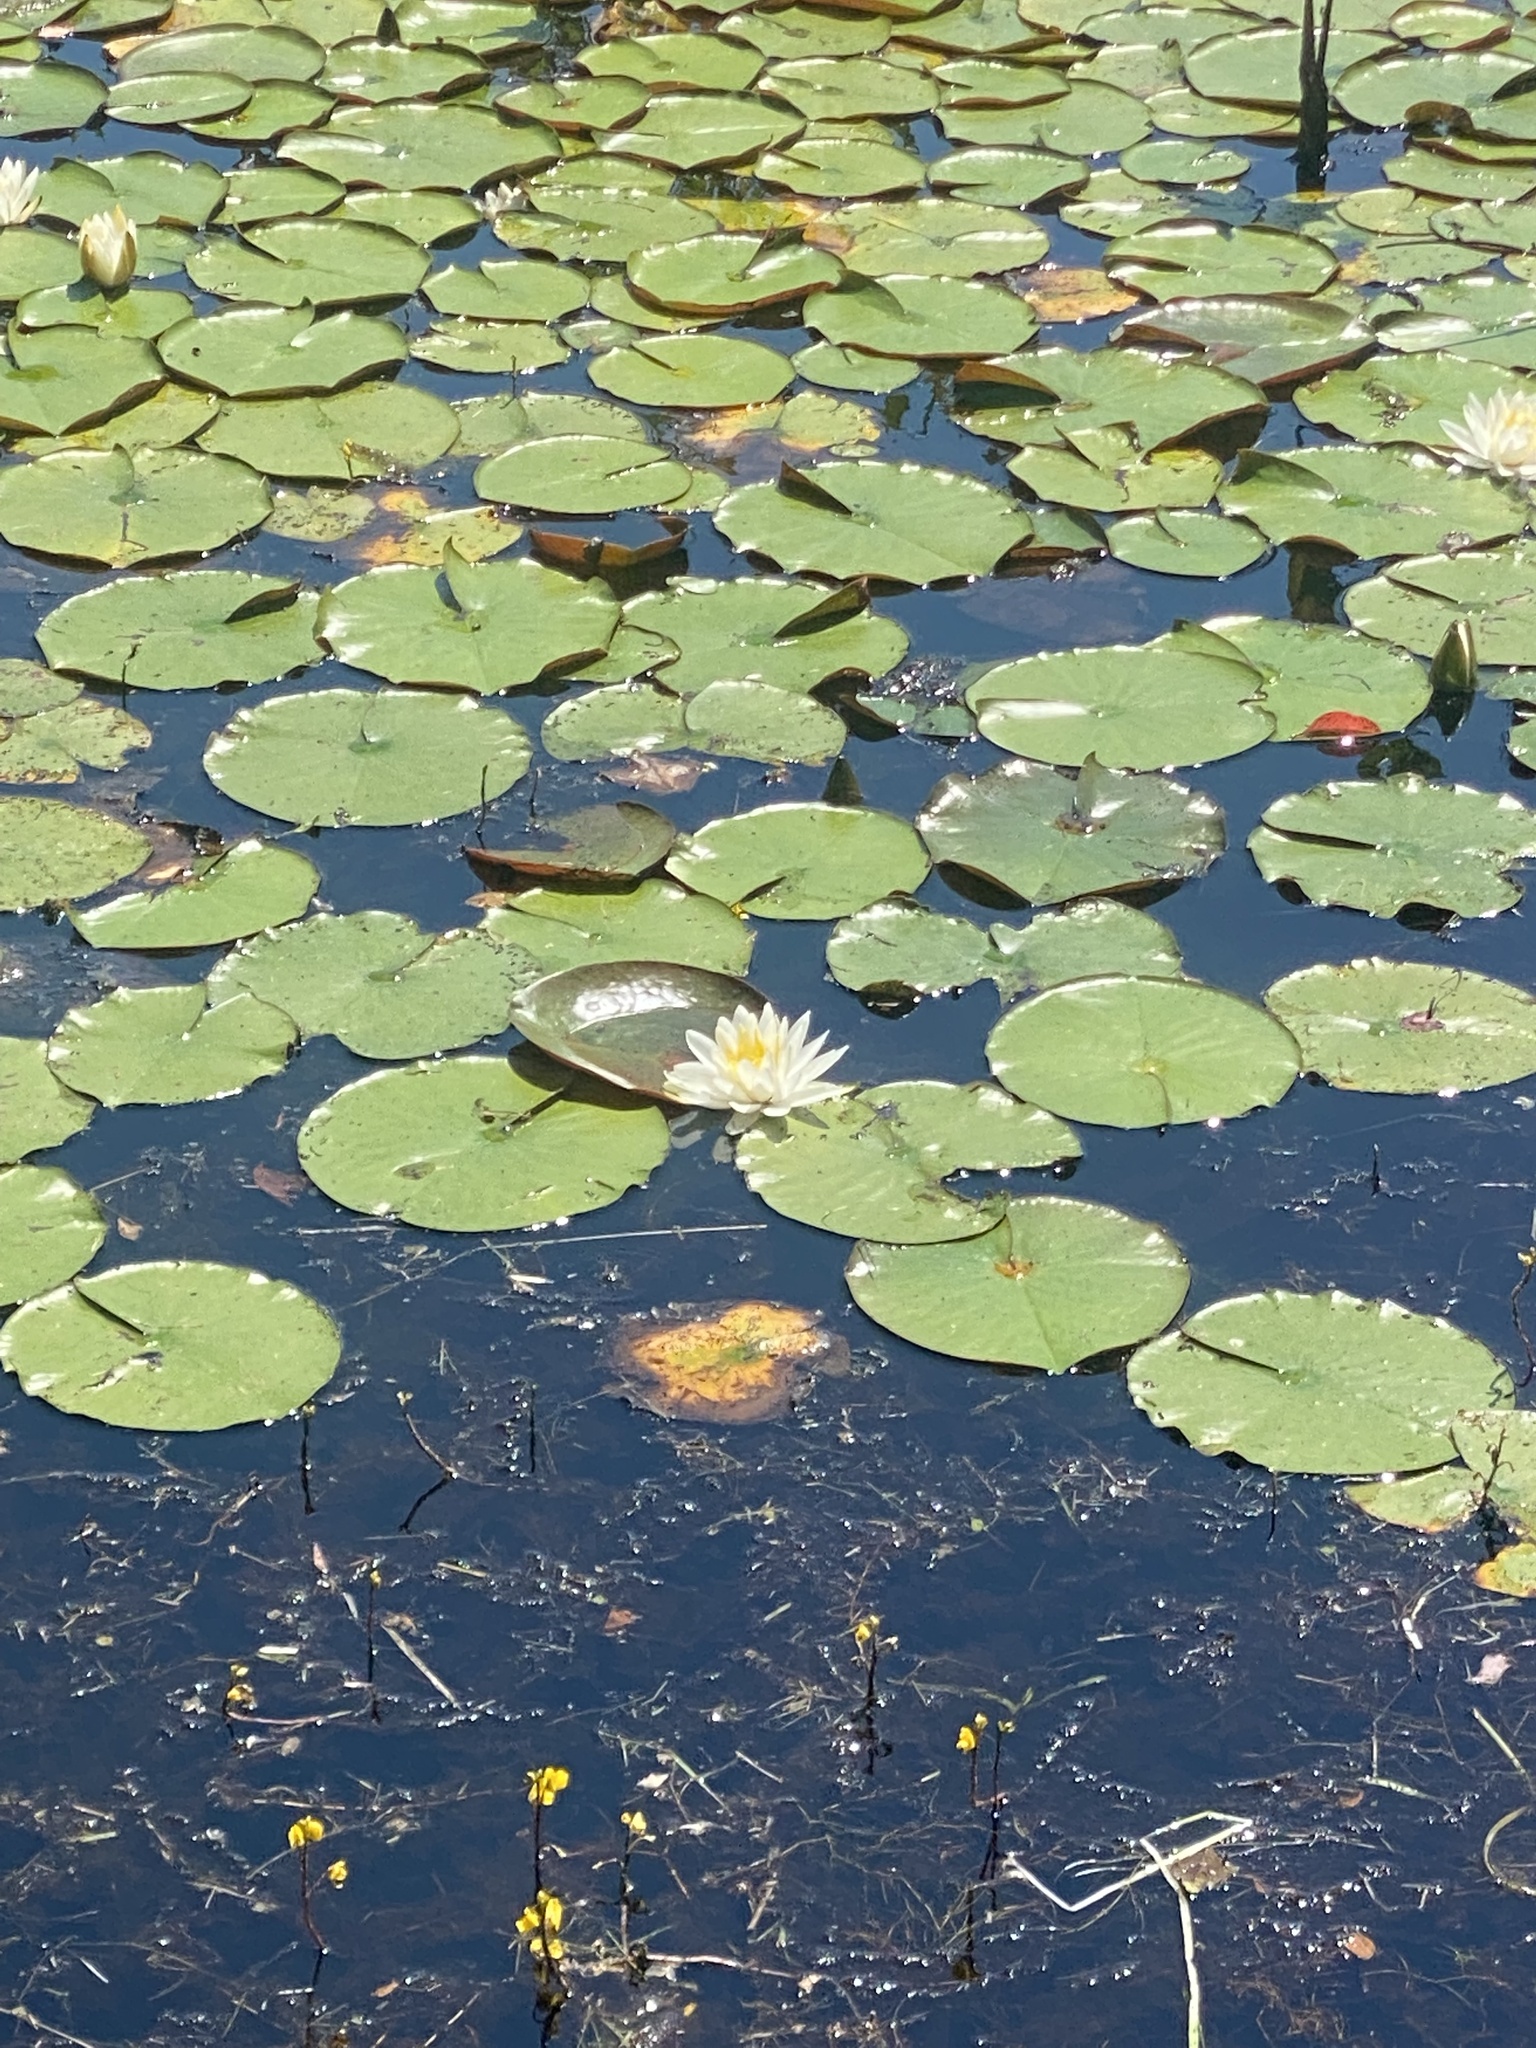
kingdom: Plantae
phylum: Tracheophyta
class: Magnoliopsida
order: Nymphaeales
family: Nymphaeaceae
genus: Nymphaea
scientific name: Nymphaea odorata
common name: Fragrant water-lily
